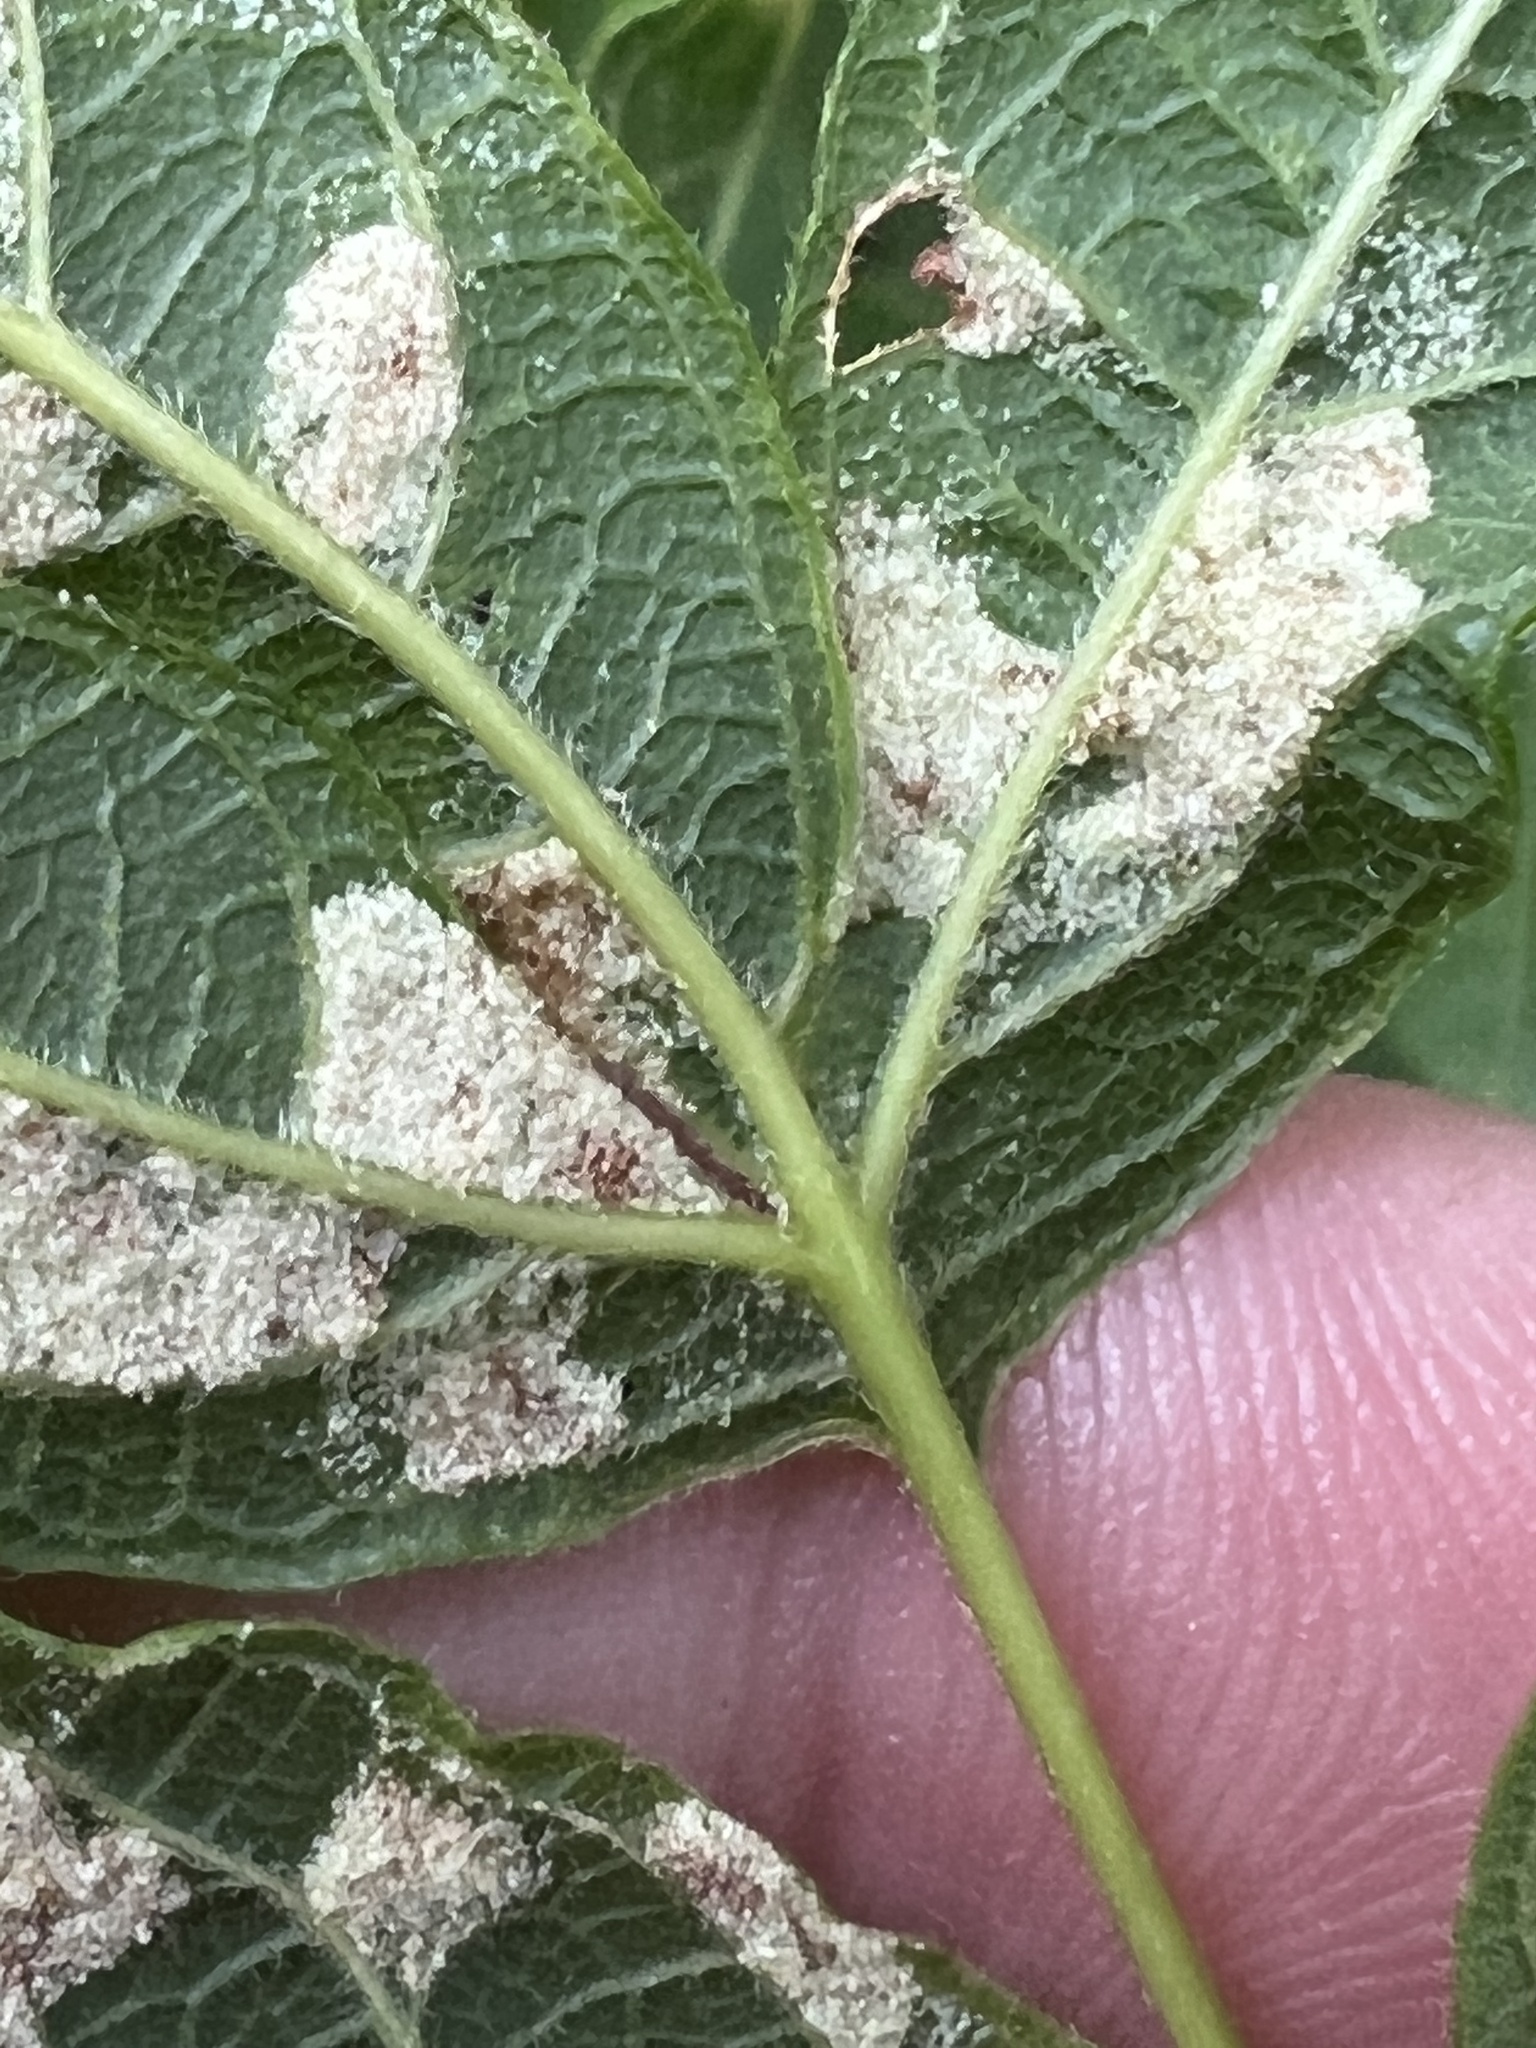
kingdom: Animalia
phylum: Arthropoda
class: Arachnida
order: Trombidiformes
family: Eriophyidae
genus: Aceria
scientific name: Aceria
